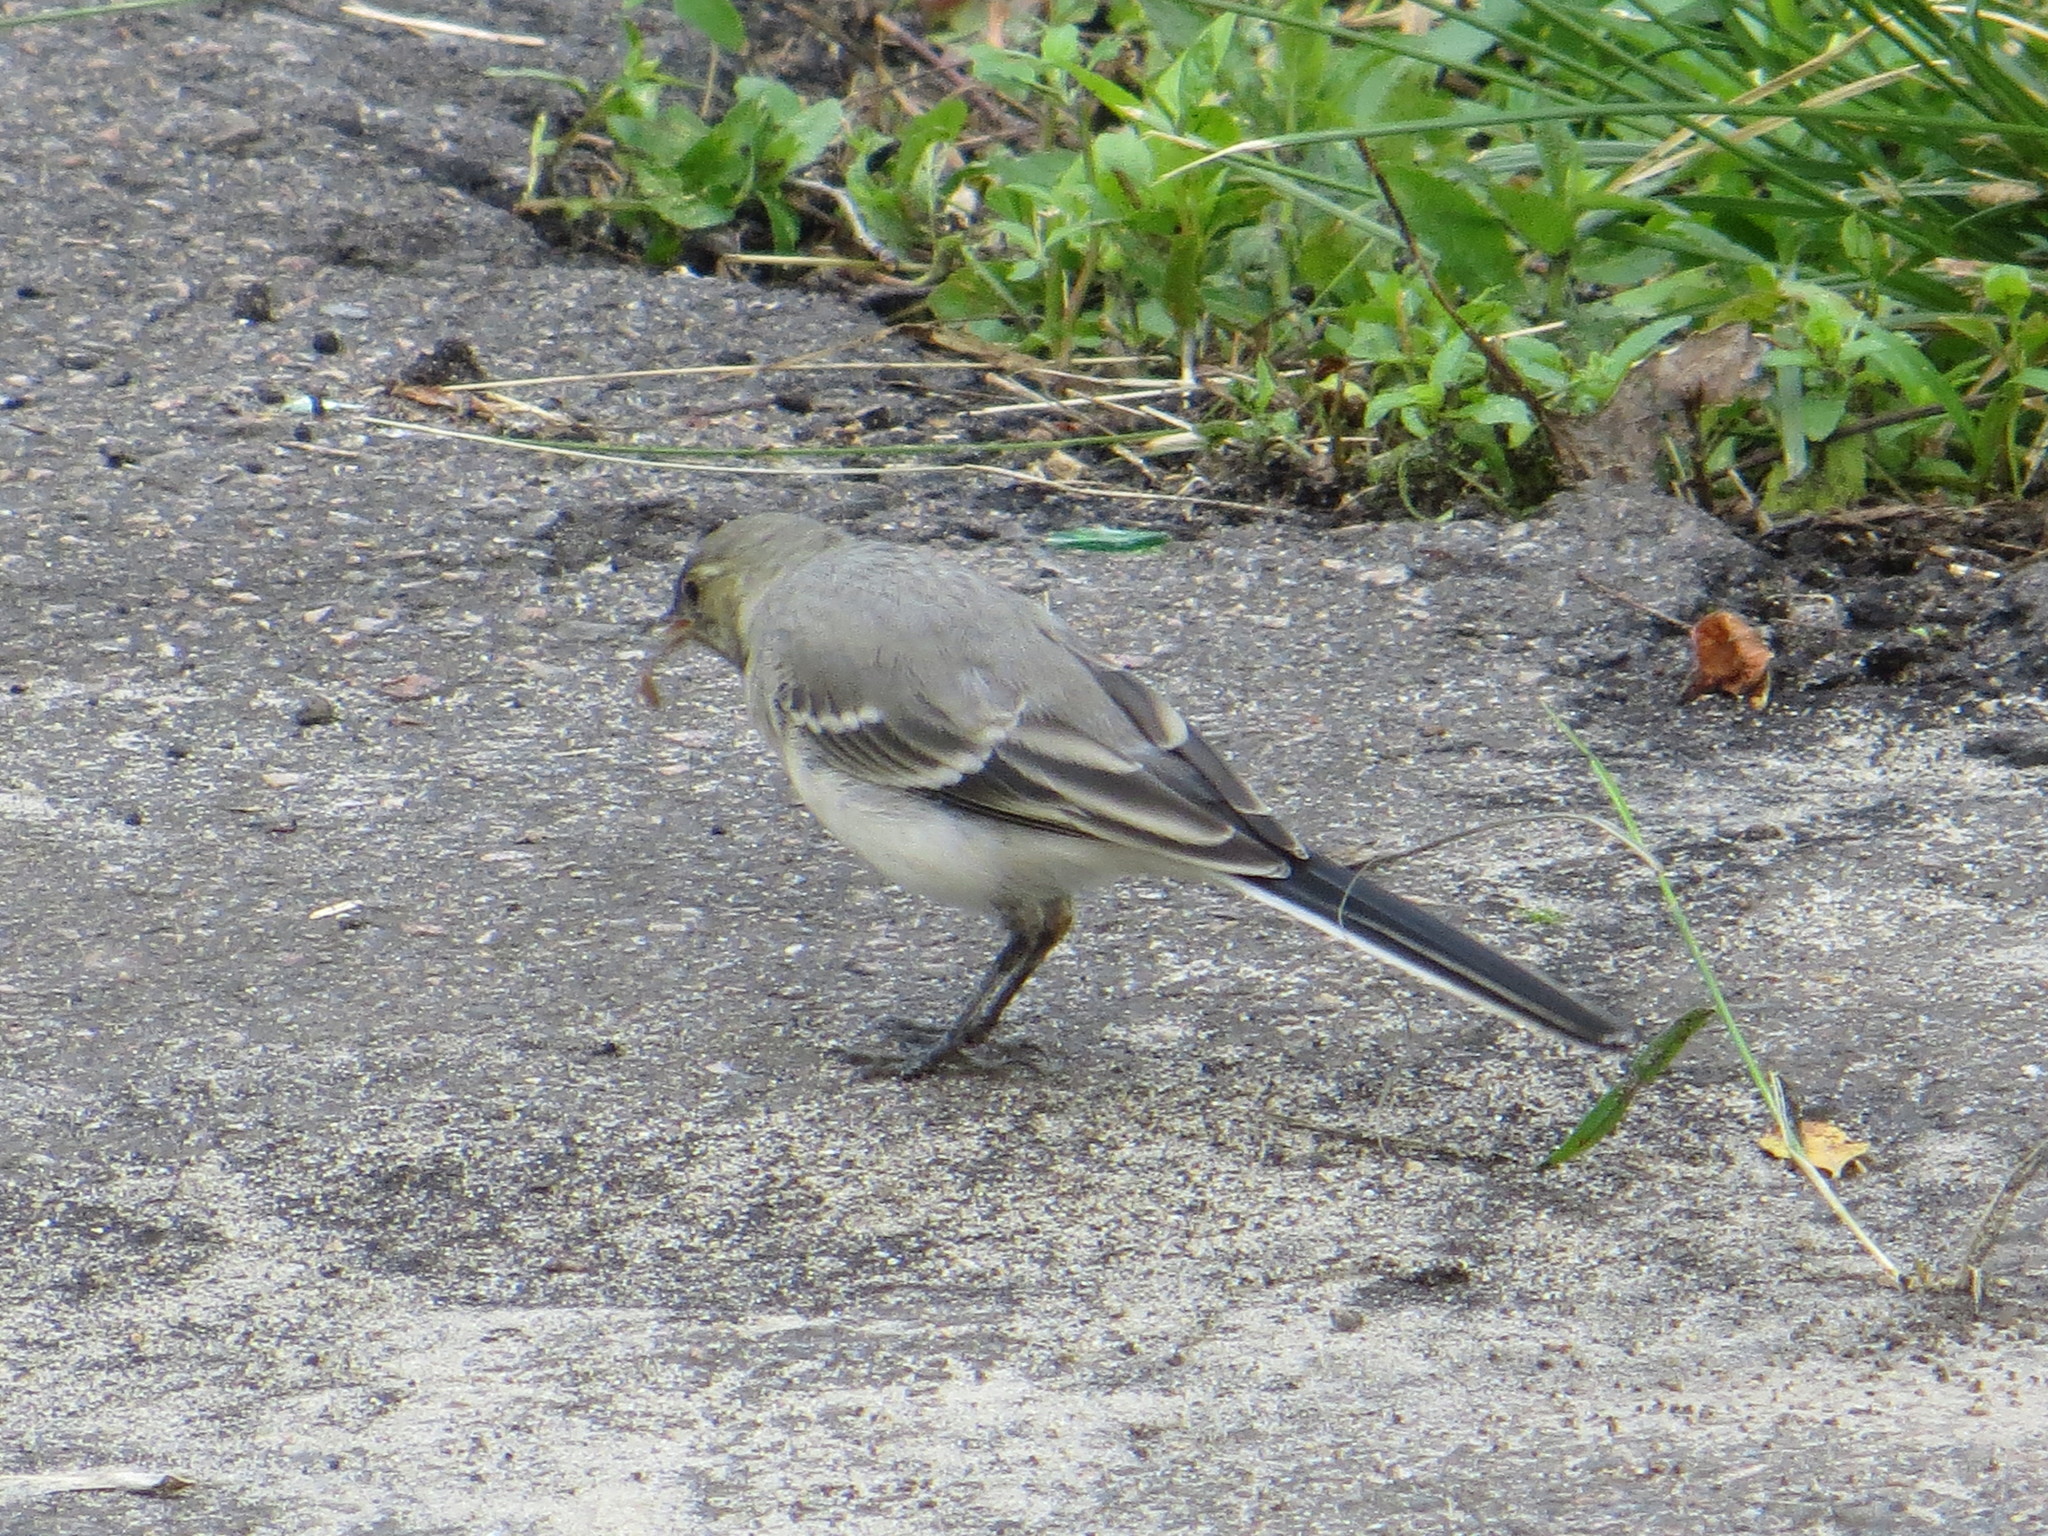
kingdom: Animalia
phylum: Chordata
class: Aves
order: Passeriformes
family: Motacillidae
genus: Motacilla
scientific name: Motacilla alba
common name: White wagtail
